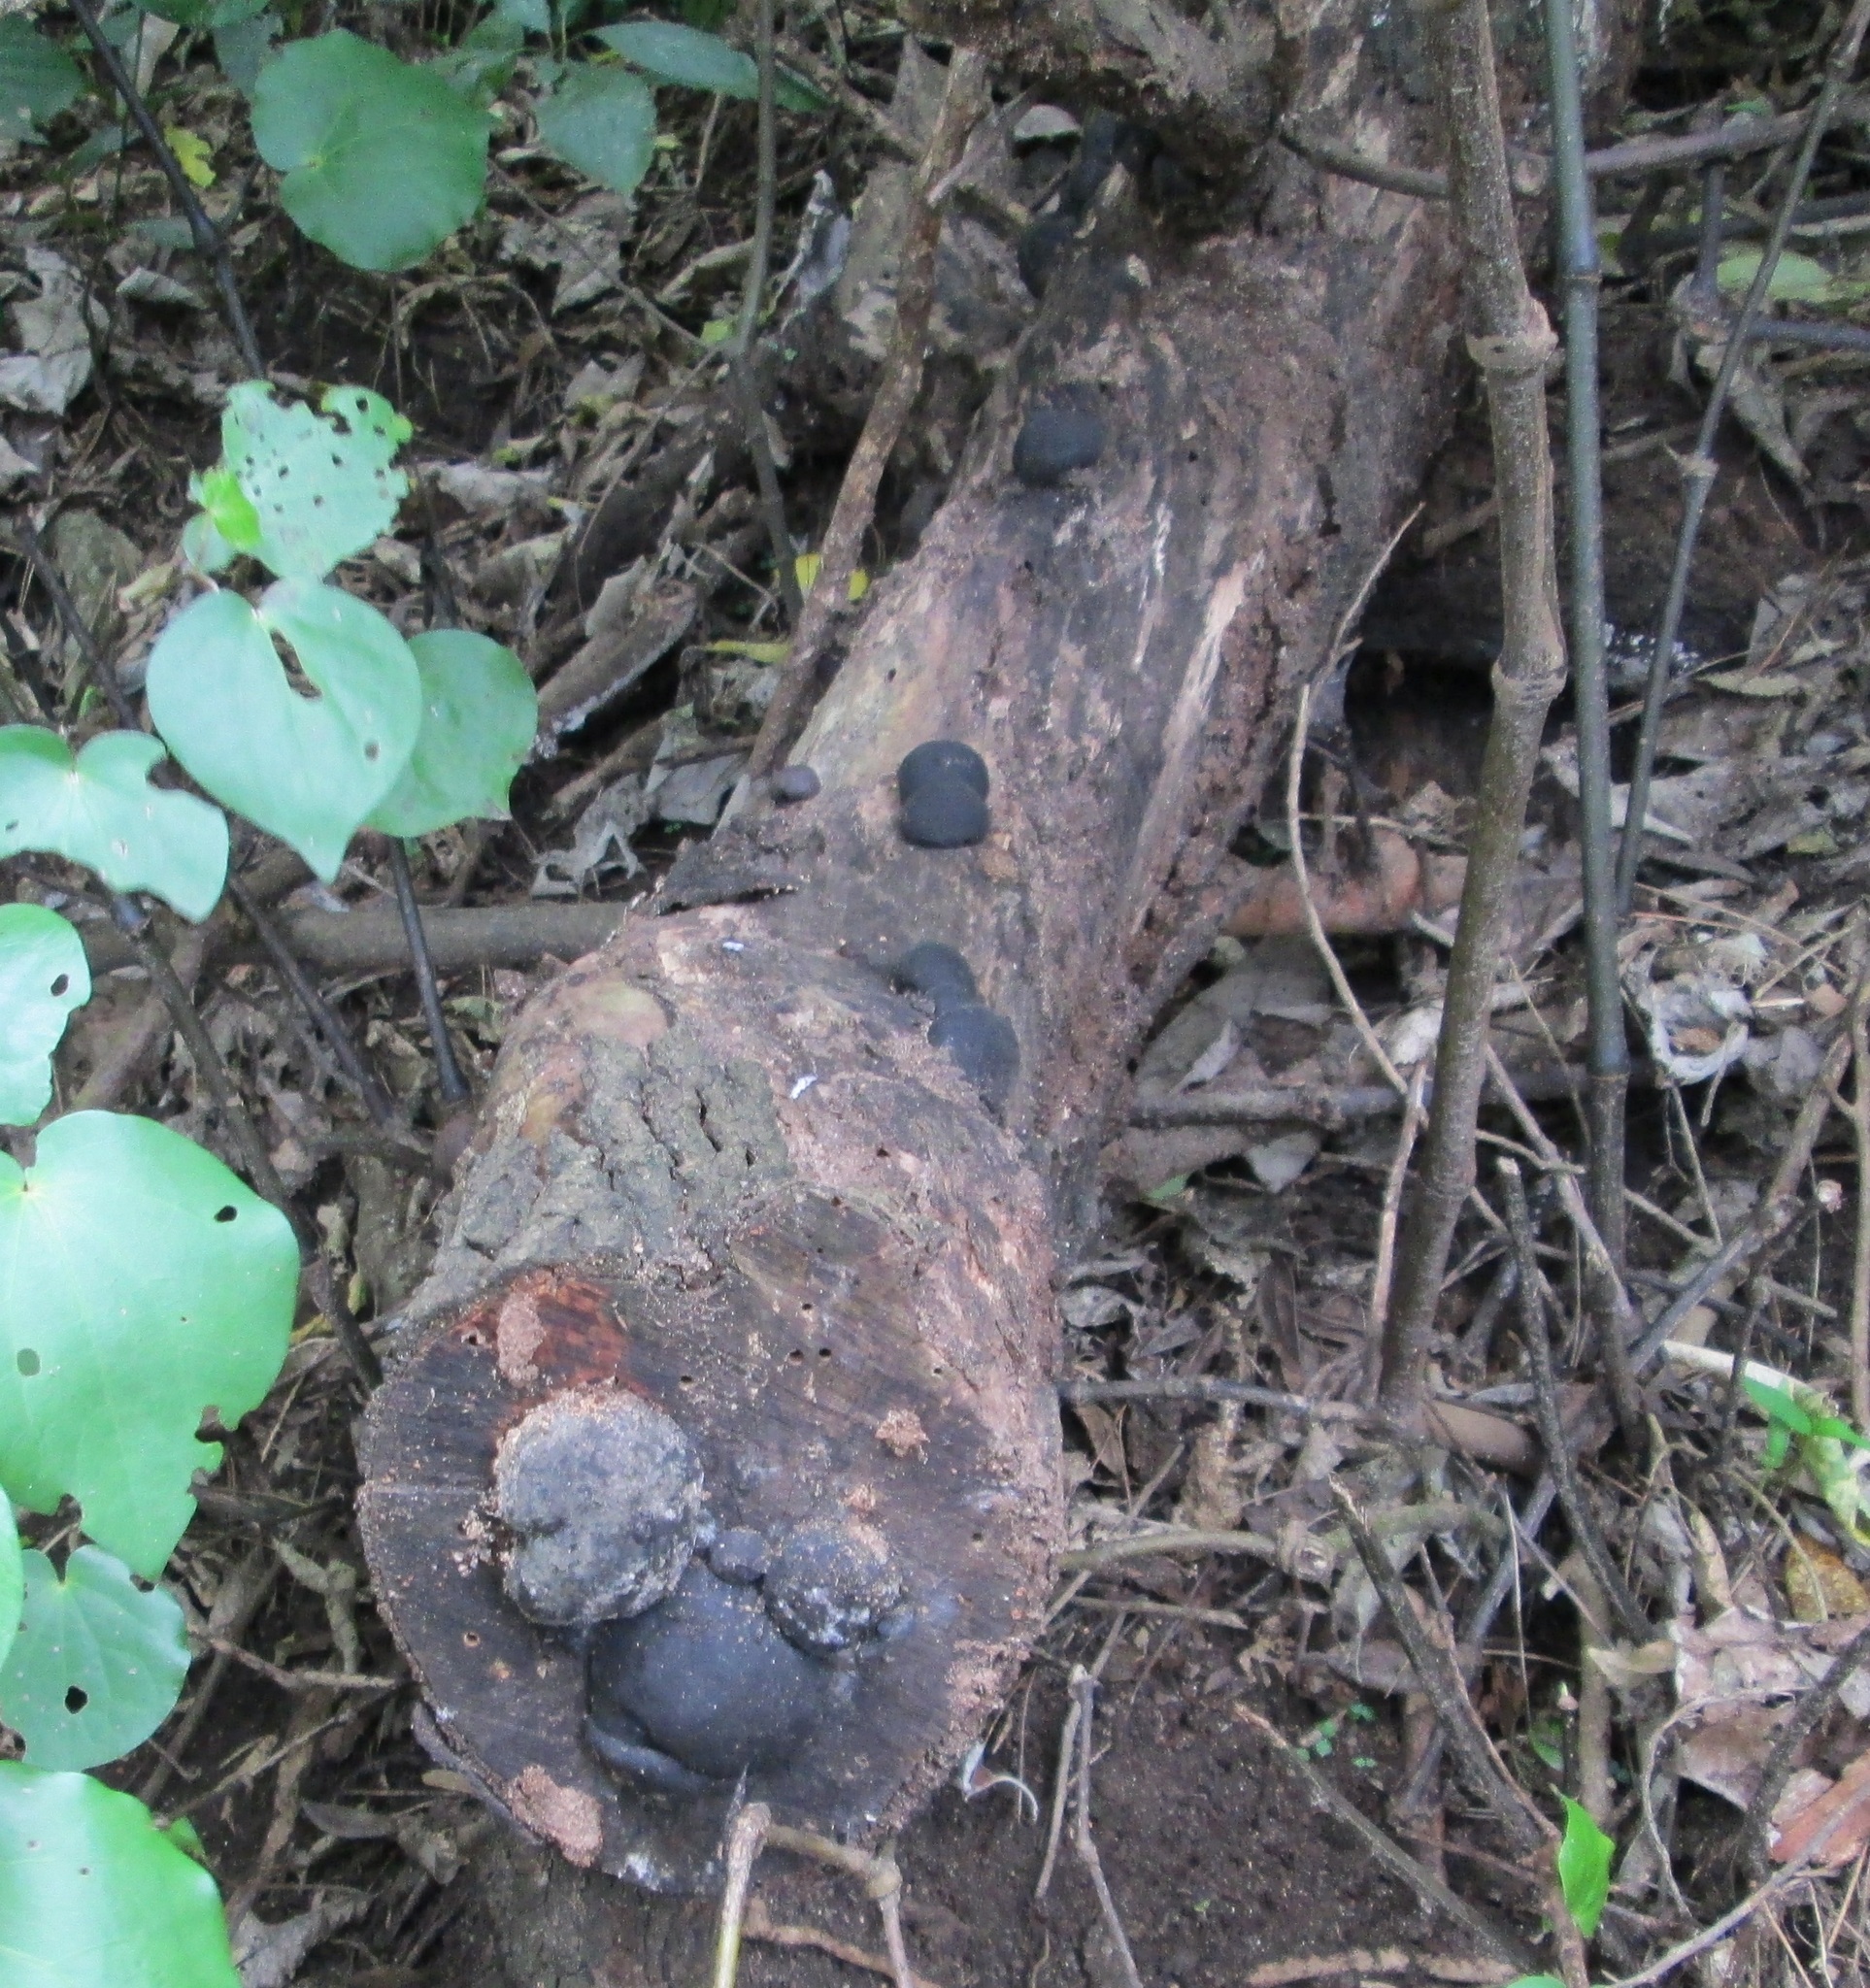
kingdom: Fungi
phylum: Ascomycota
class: Sordariomycetes
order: Xylariales
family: Hypoxylaceae
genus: Daldinia
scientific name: Daldinia
